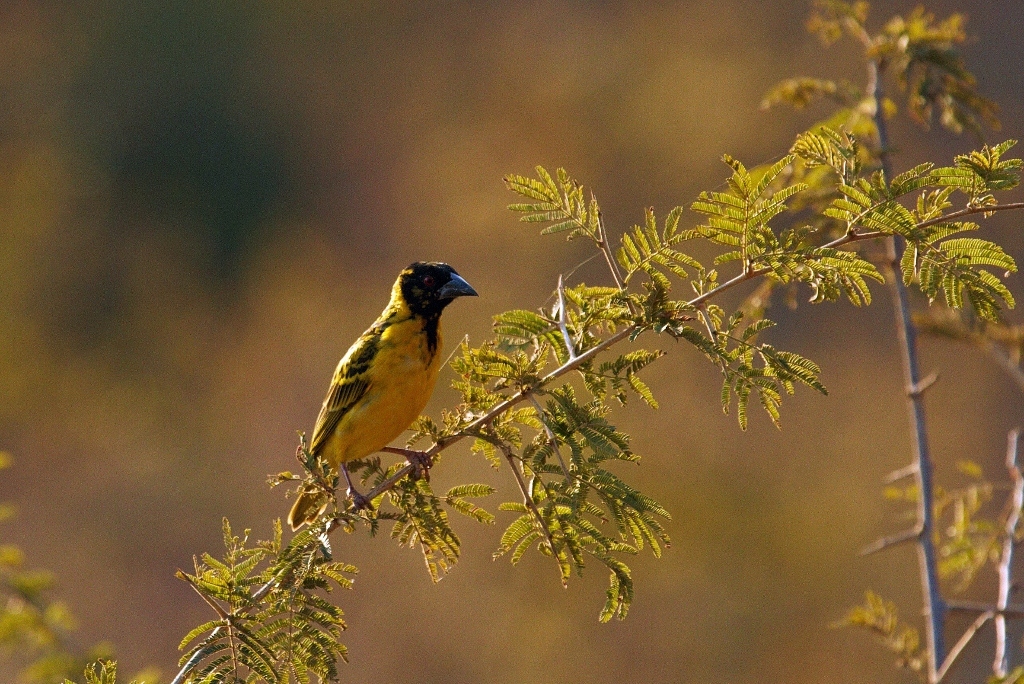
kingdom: Animalia
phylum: Chordata
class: Aves
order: Passeriformes
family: Ploceidae
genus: Ploceus
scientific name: Ploceus cucullatus
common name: Village weaver
